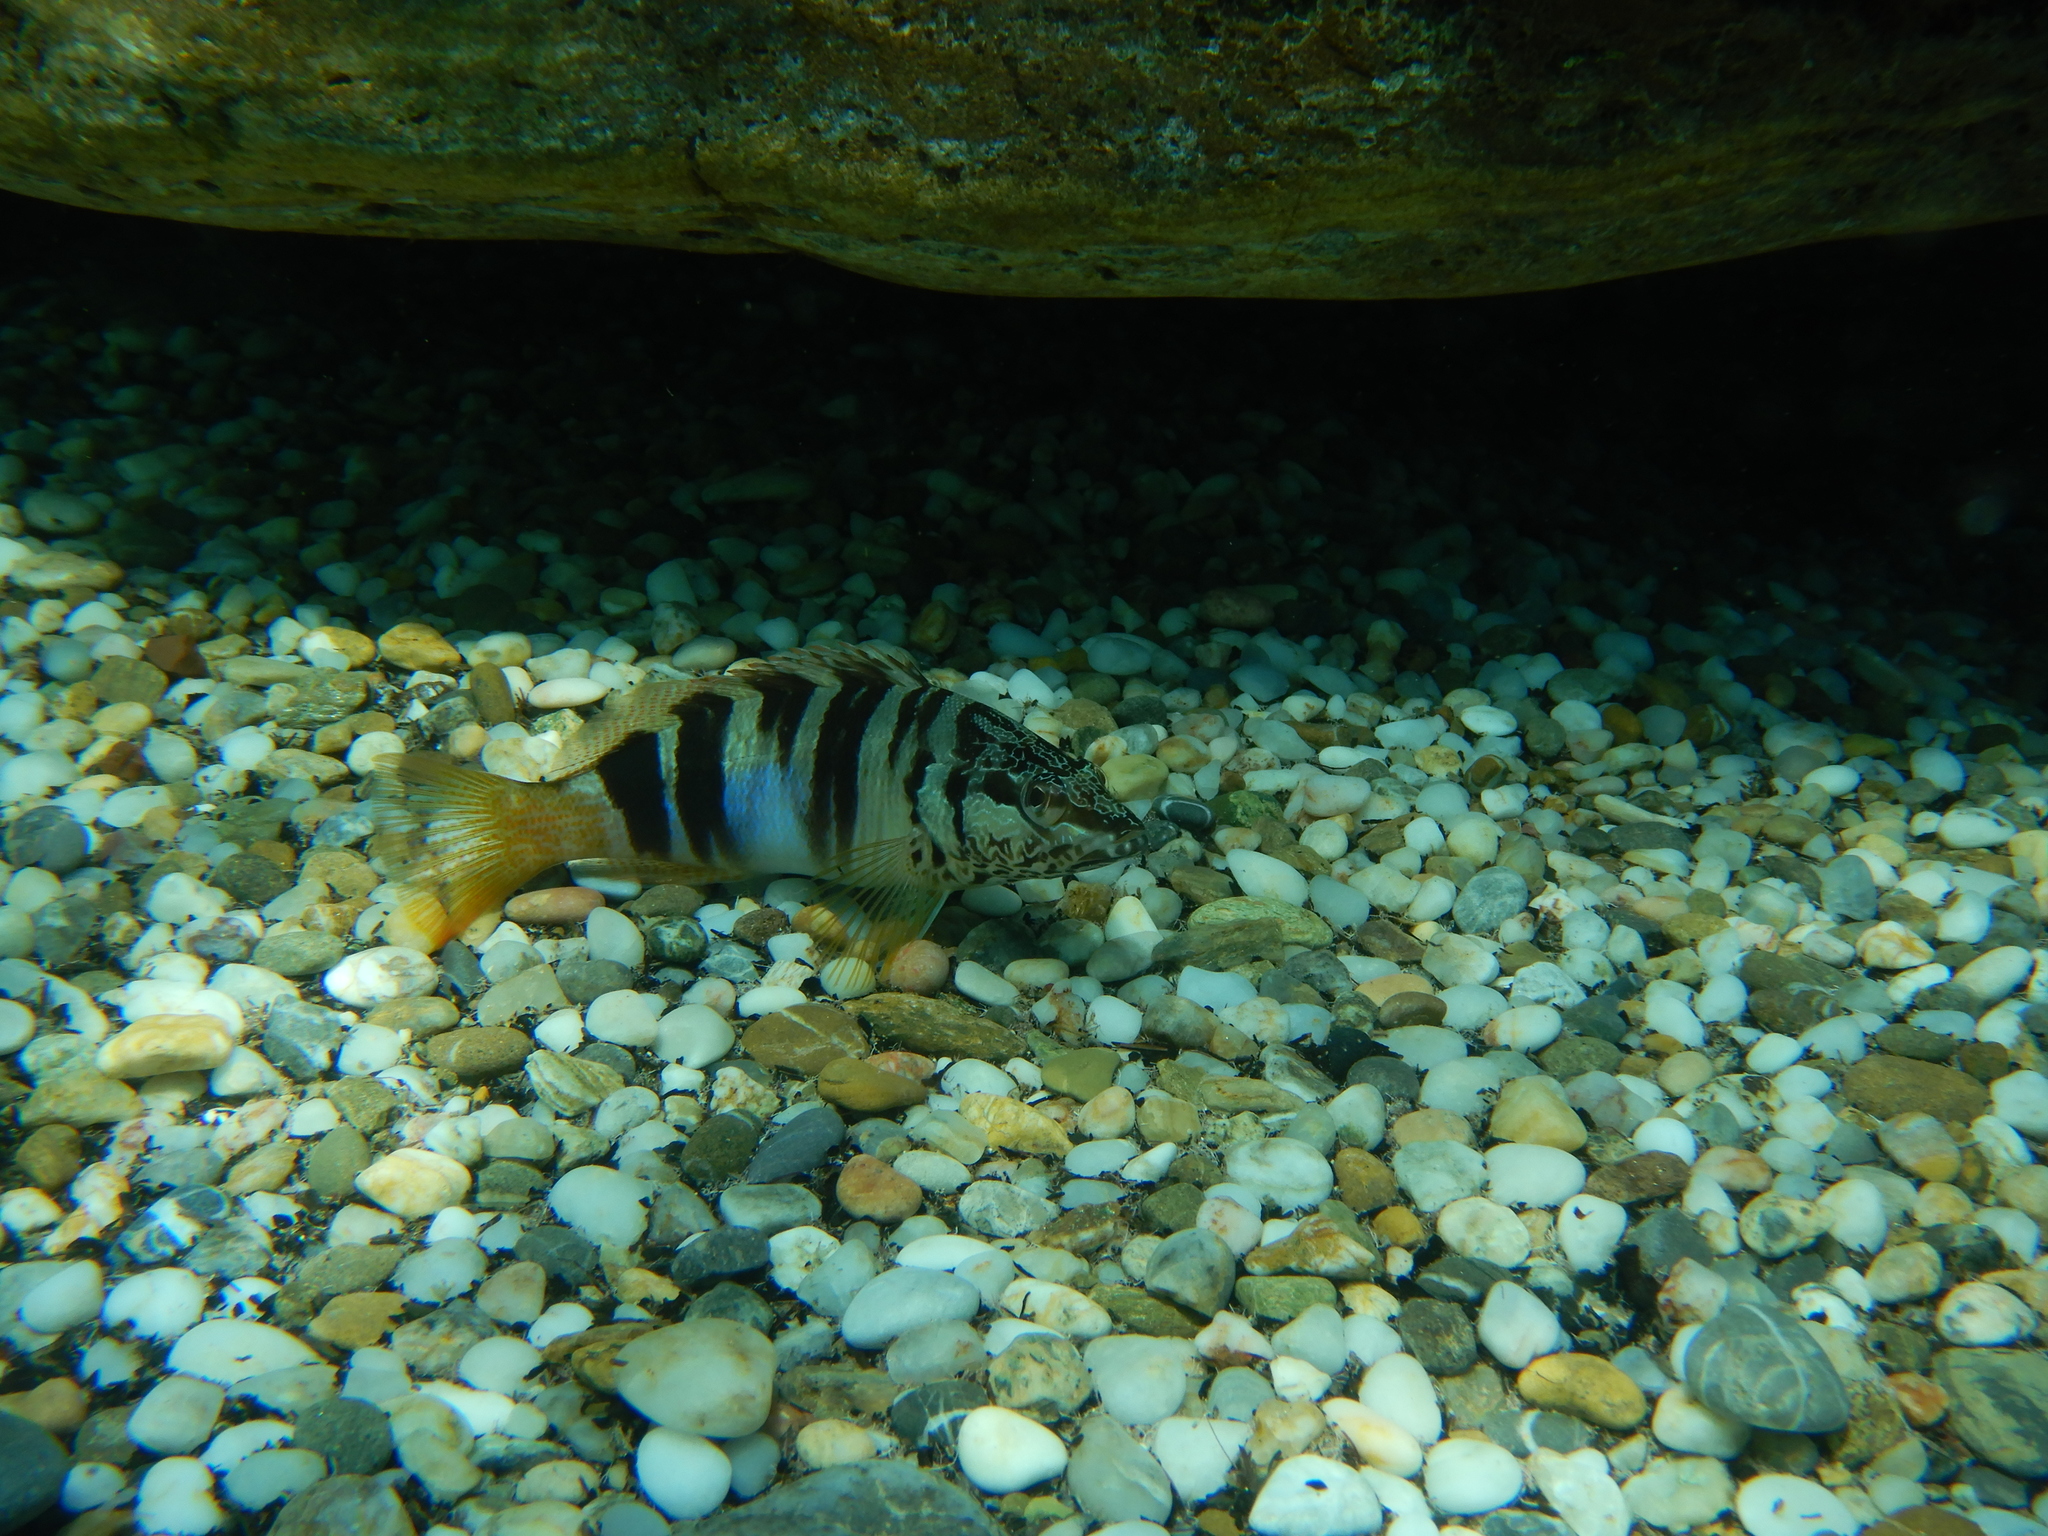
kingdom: Animalia
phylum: Chordata
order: Perciformes
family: Serranidae
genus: Serranus
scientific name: Serranus scriba
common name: Painted comber
